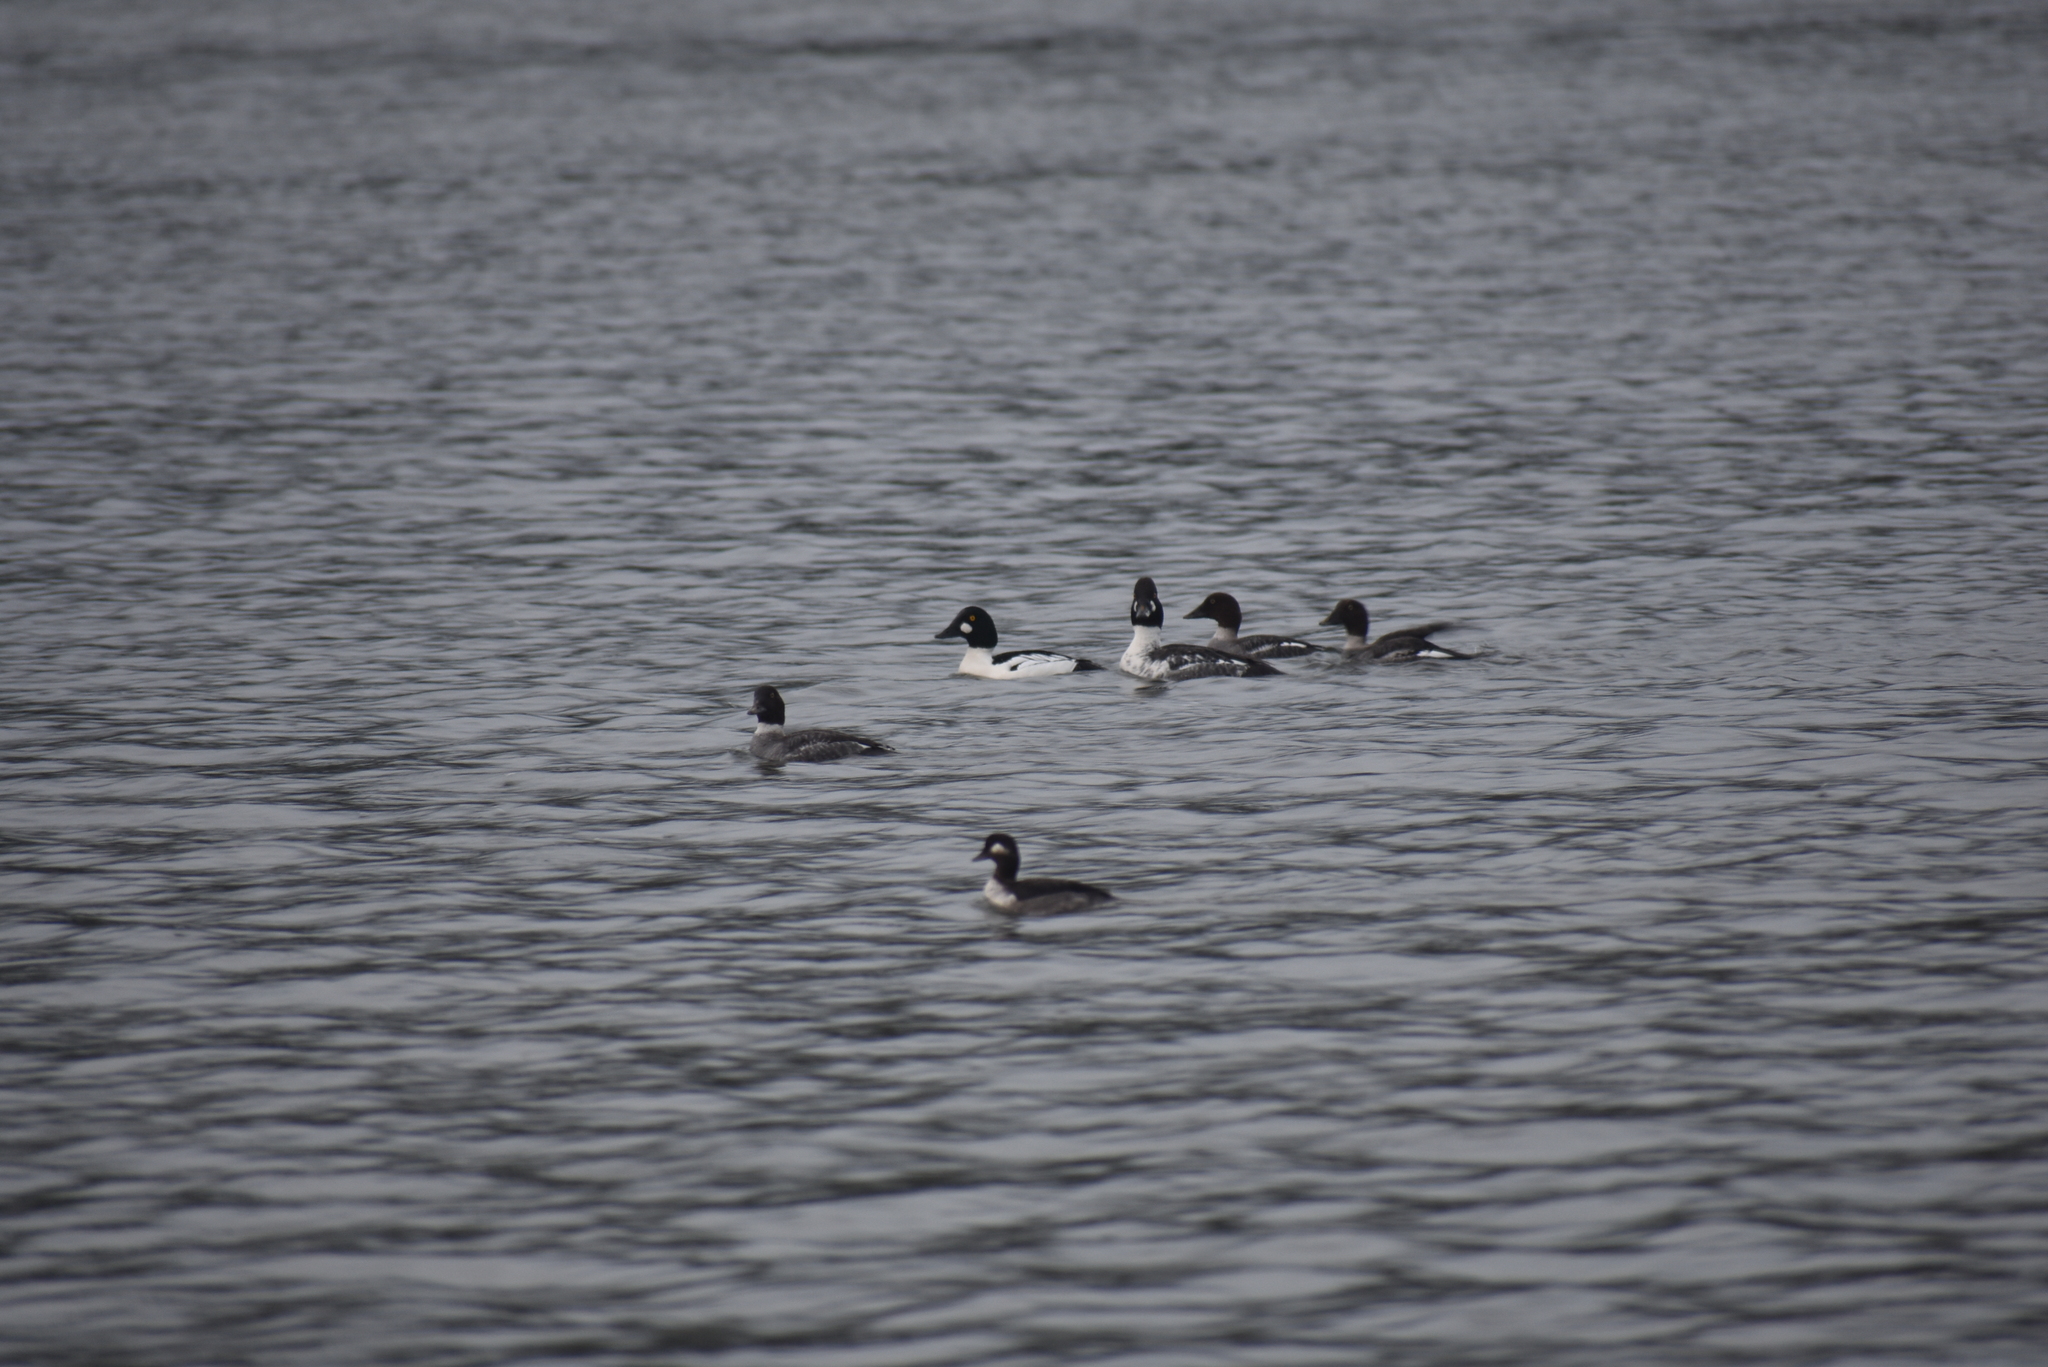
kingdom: Animalia
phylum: Chordata
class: Aves
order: Anseriformes
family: Anatidae
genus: Bucephala
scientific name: Bucephala clangula
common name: Common goldeneye
